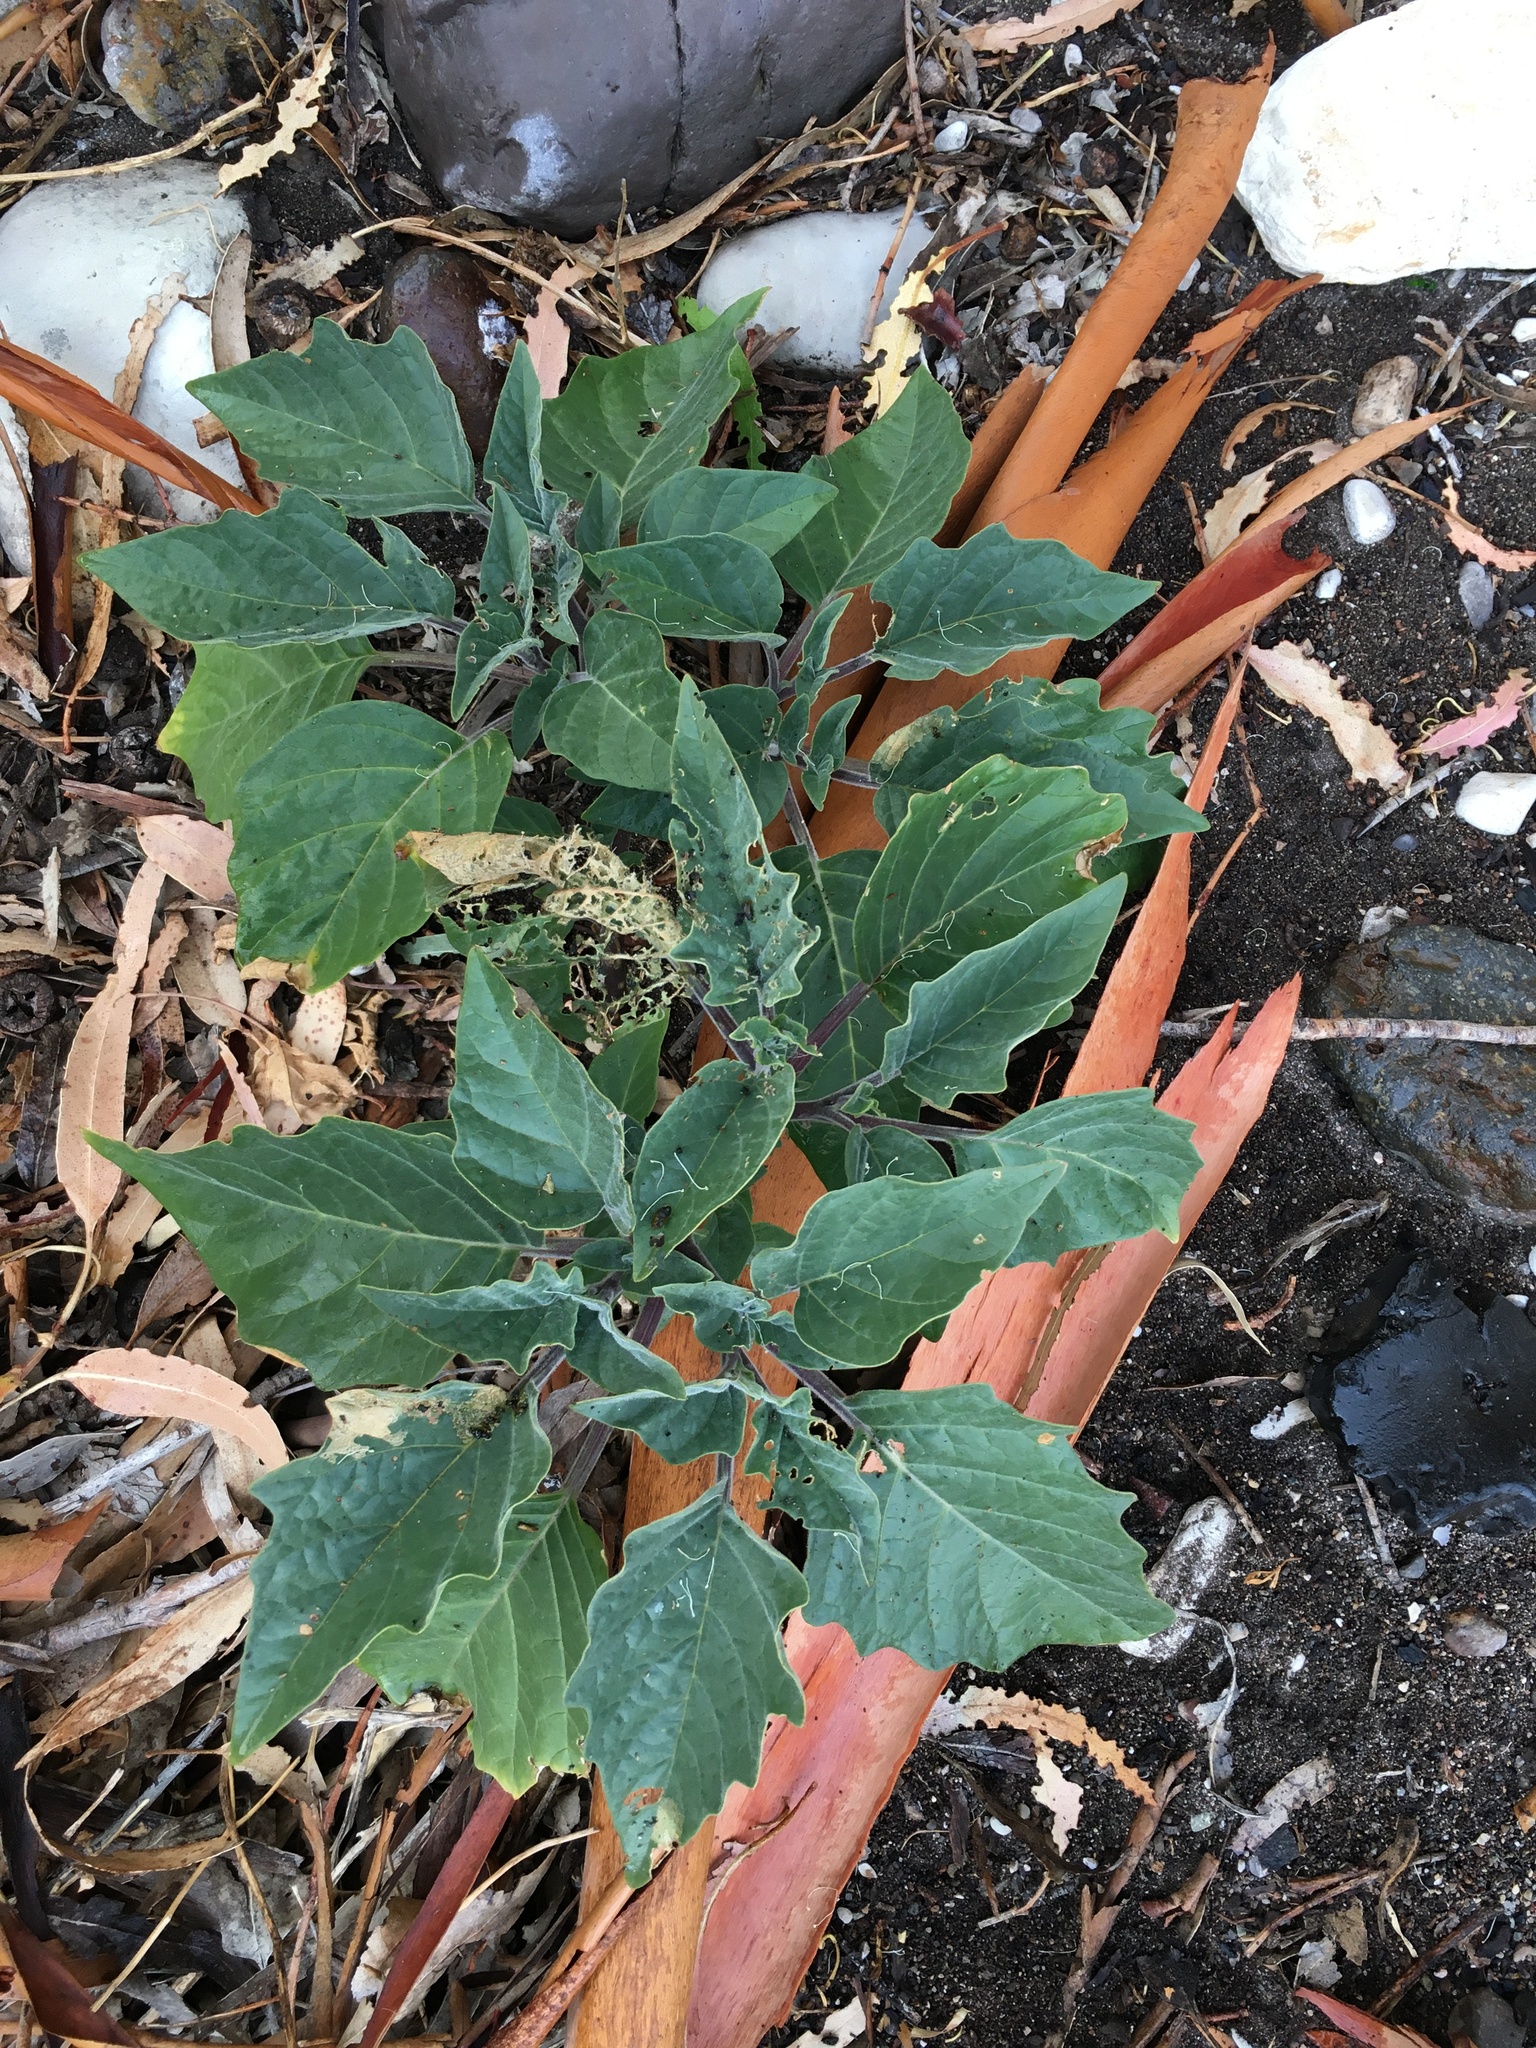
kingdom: Plantae
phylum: Tracheophyta
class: Magnoliopsida
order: Solanales
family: Solanaceae
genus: Datura
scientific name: Datura wrightii
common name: Sacred thorn-apple
